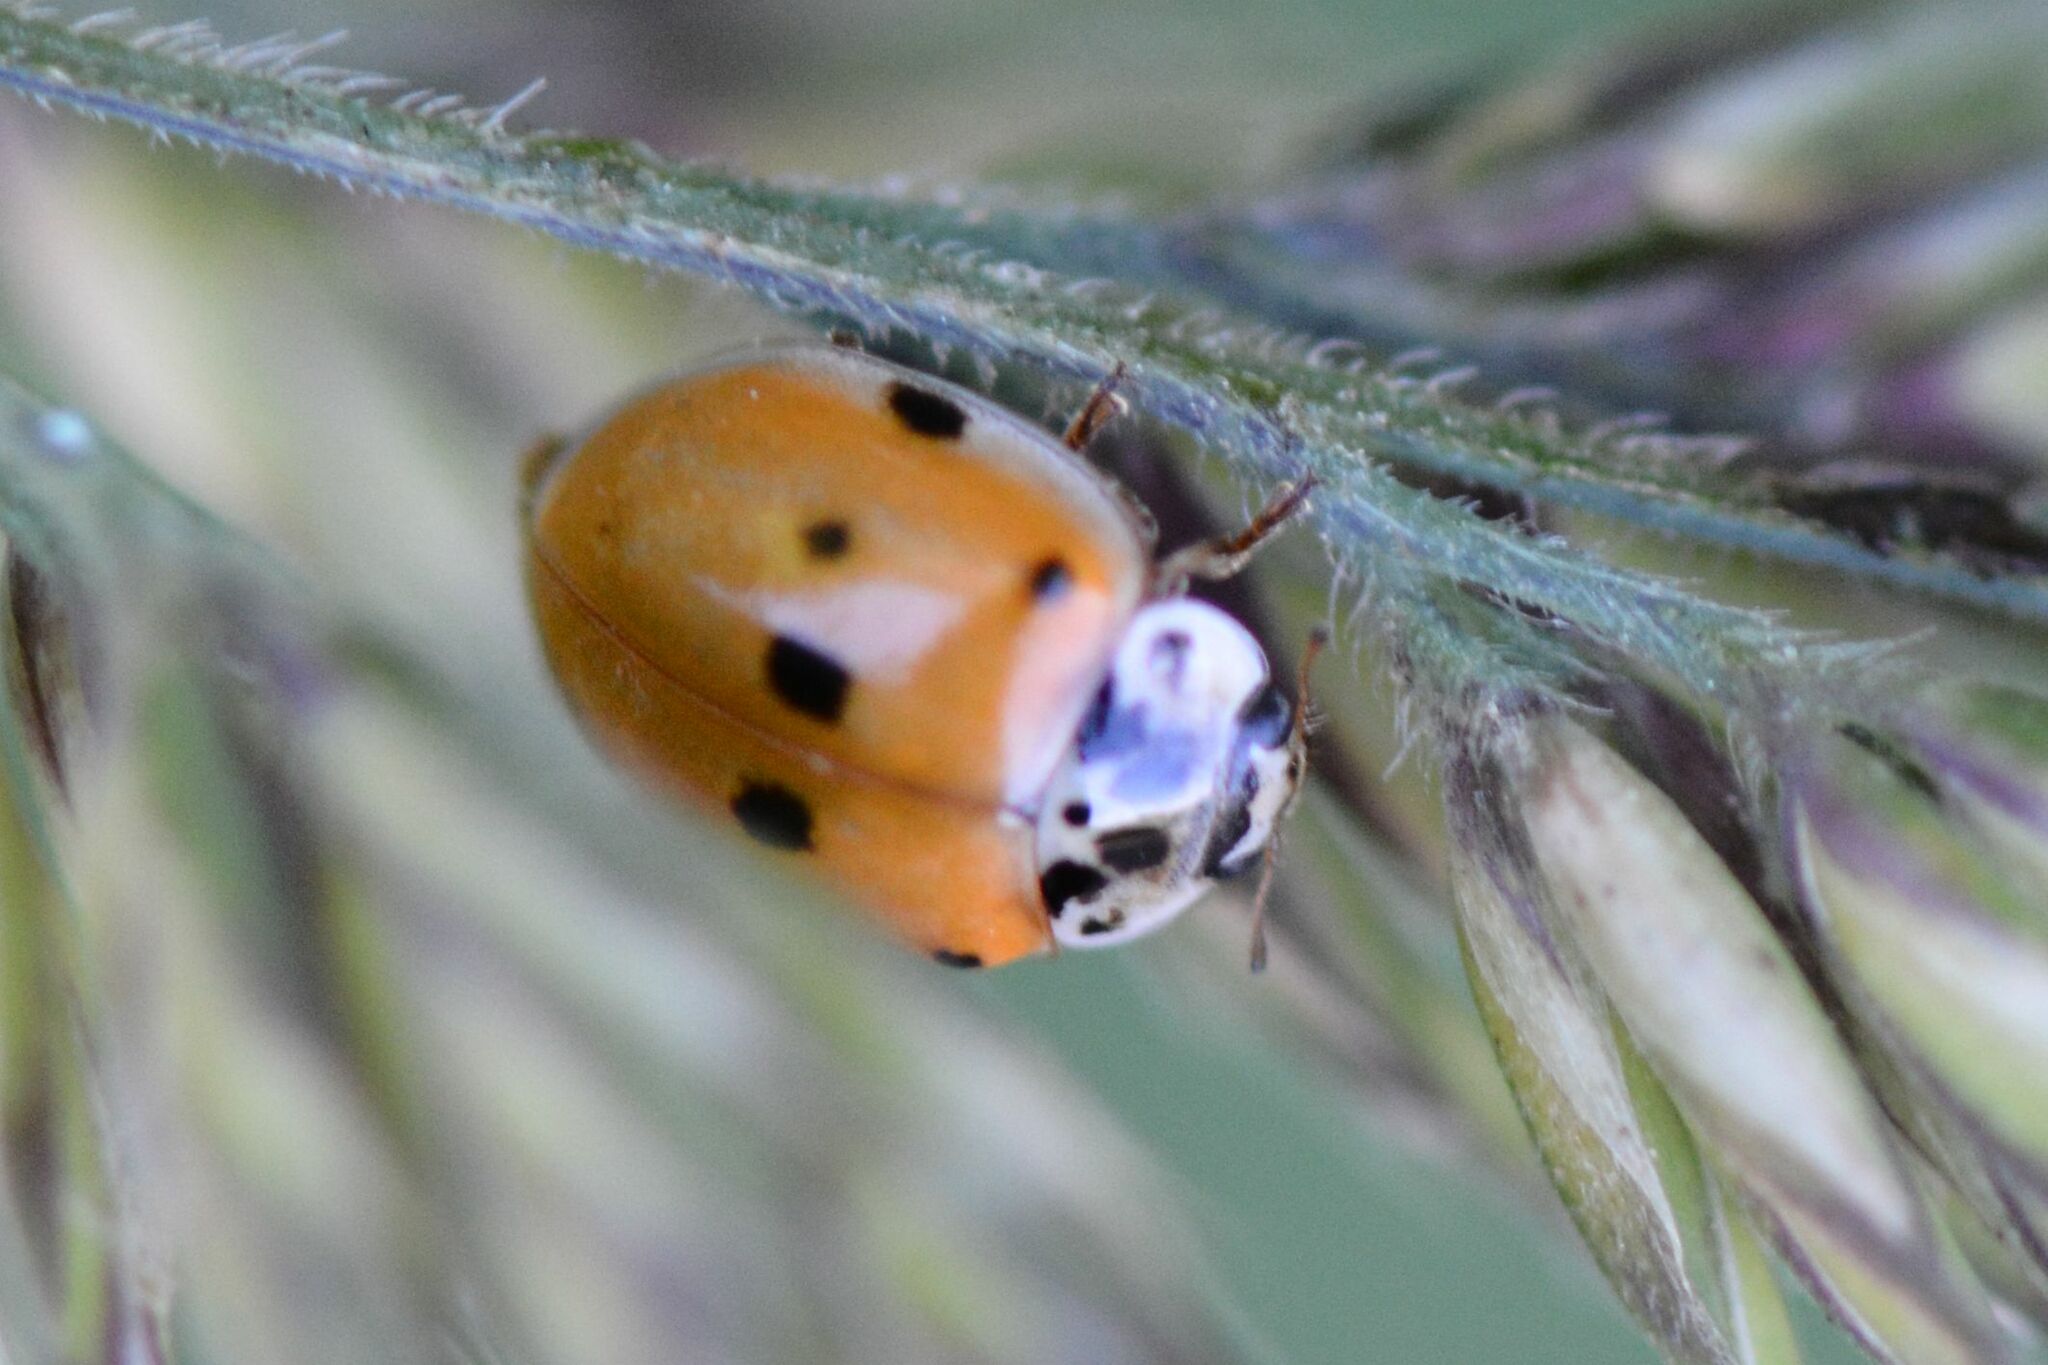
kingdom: Animalia
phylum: Arthropoda
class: Insecta
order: Coleoptera
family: Coccinellidae
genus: Adalia
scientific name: Adalia decempunctata
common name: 10-spot ladybird
